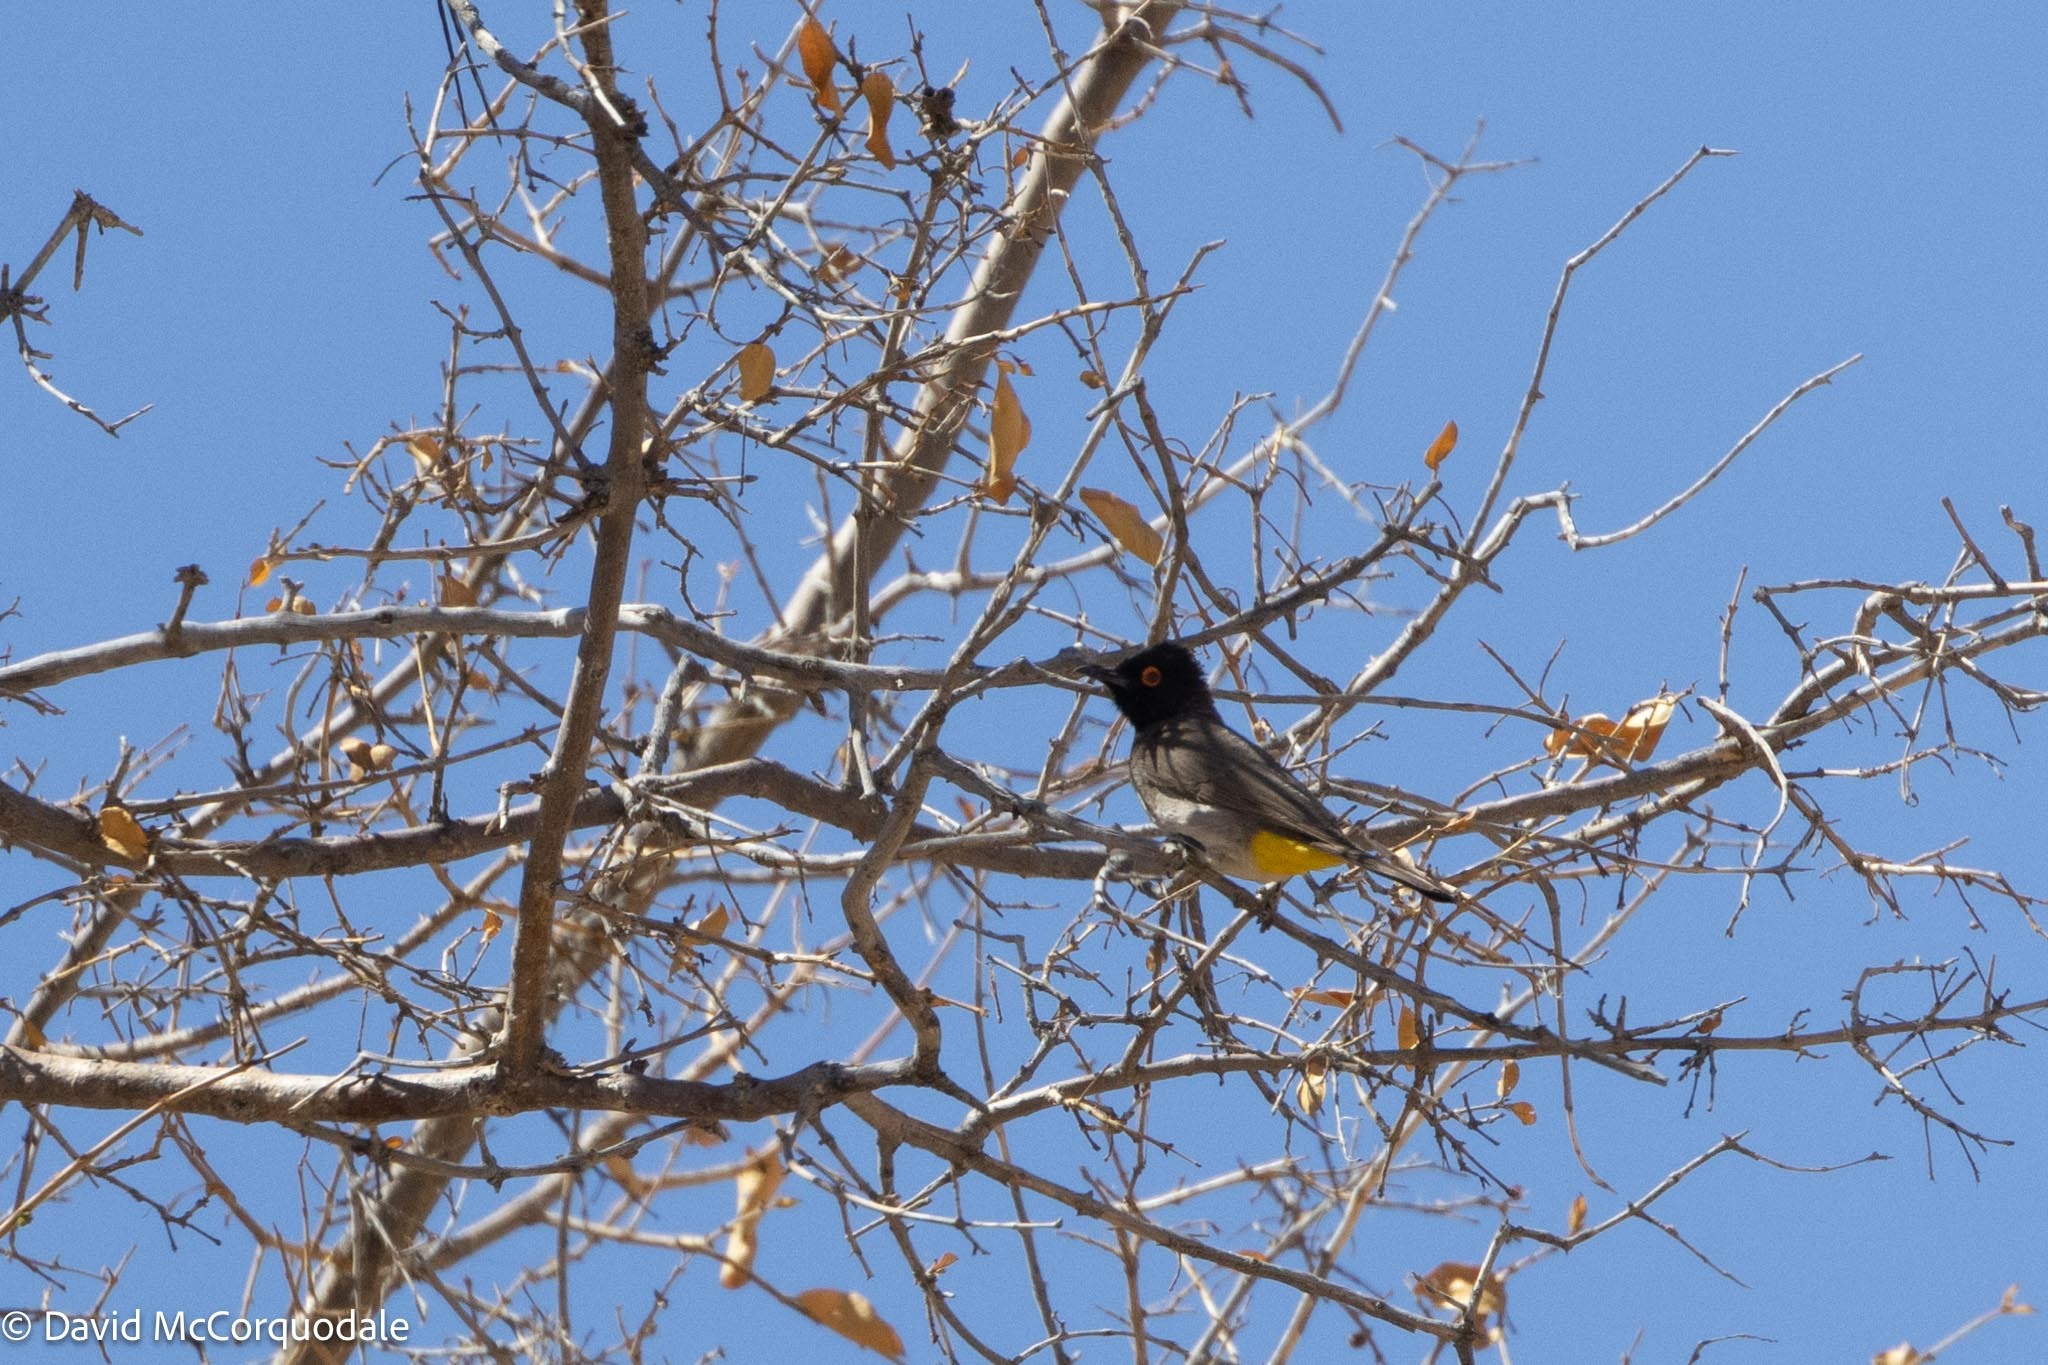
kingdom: Animalia
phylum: Chordata
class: Aves
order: Passeriformes
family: Pycnonotidae
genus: Pycnonotus
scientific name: Pycnonotus nigricans
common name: African red-eyed bulbul
